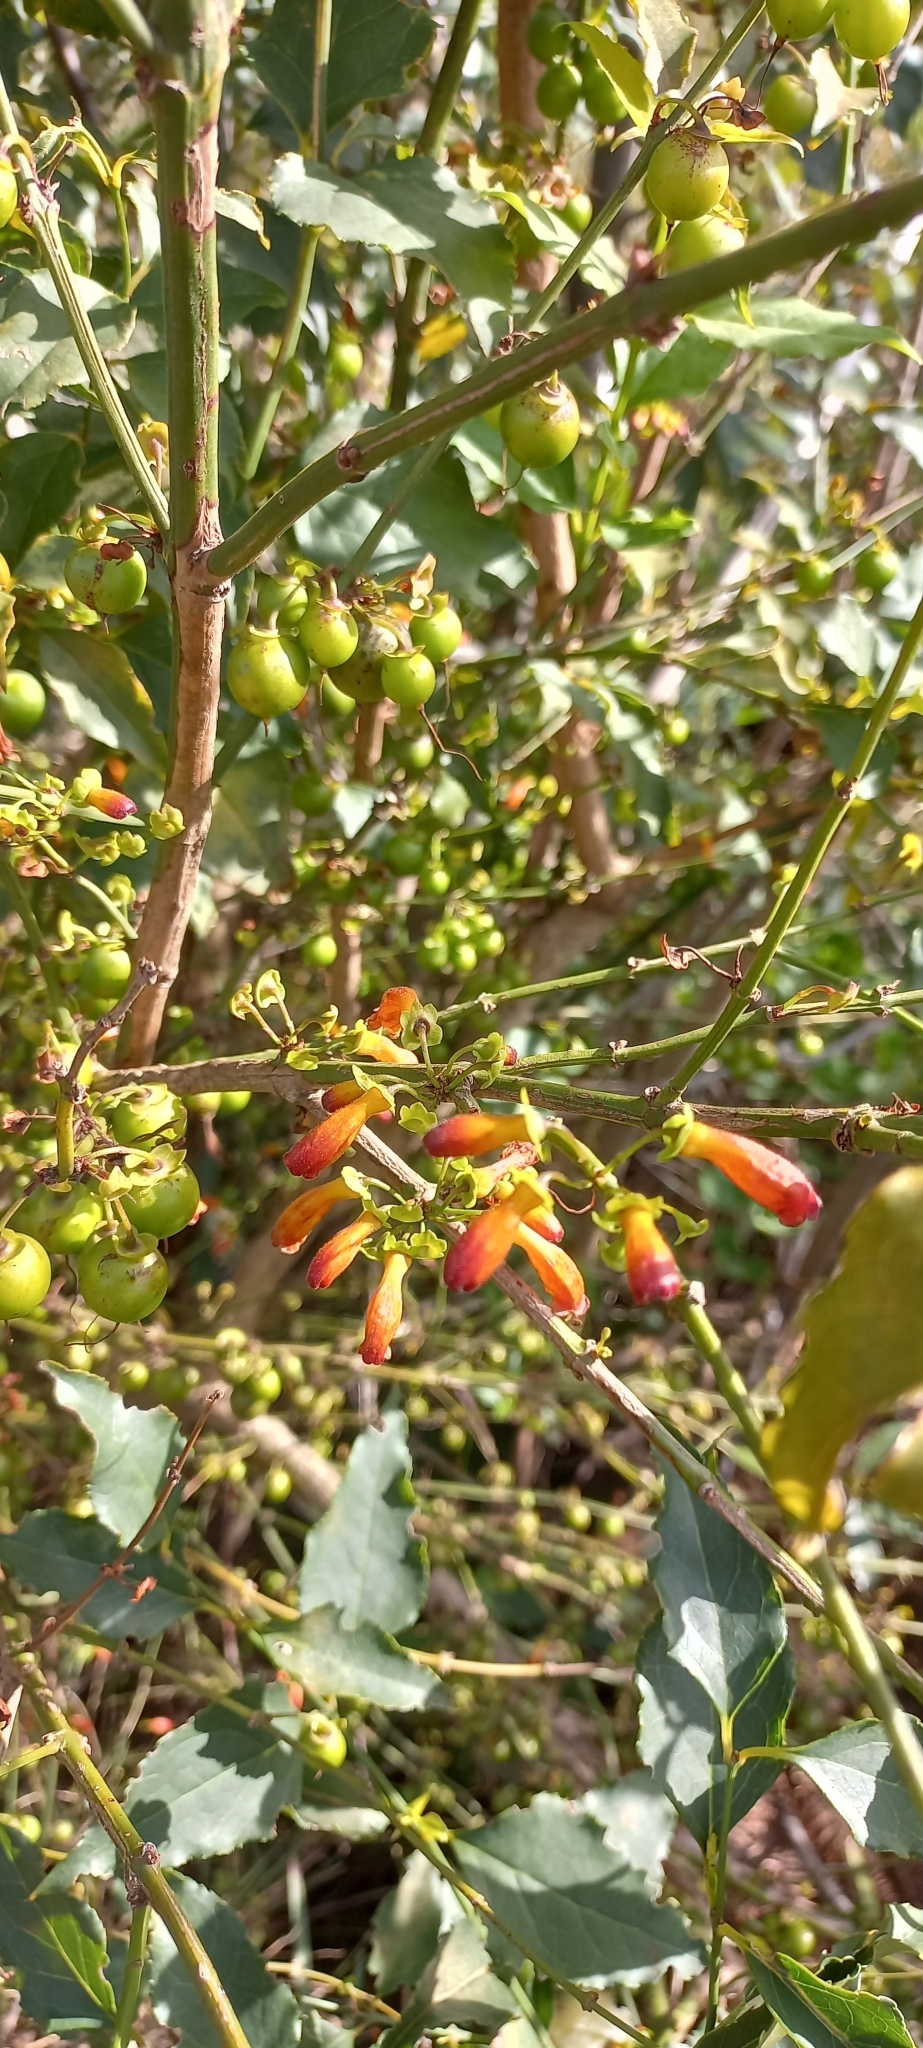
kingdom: Plantae
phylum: Tracheophyta
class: Magnoliopsida
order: Lamiales
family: Stilbaceae
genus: Halleria
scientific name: Halleria lucida
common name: Tree fuschia
